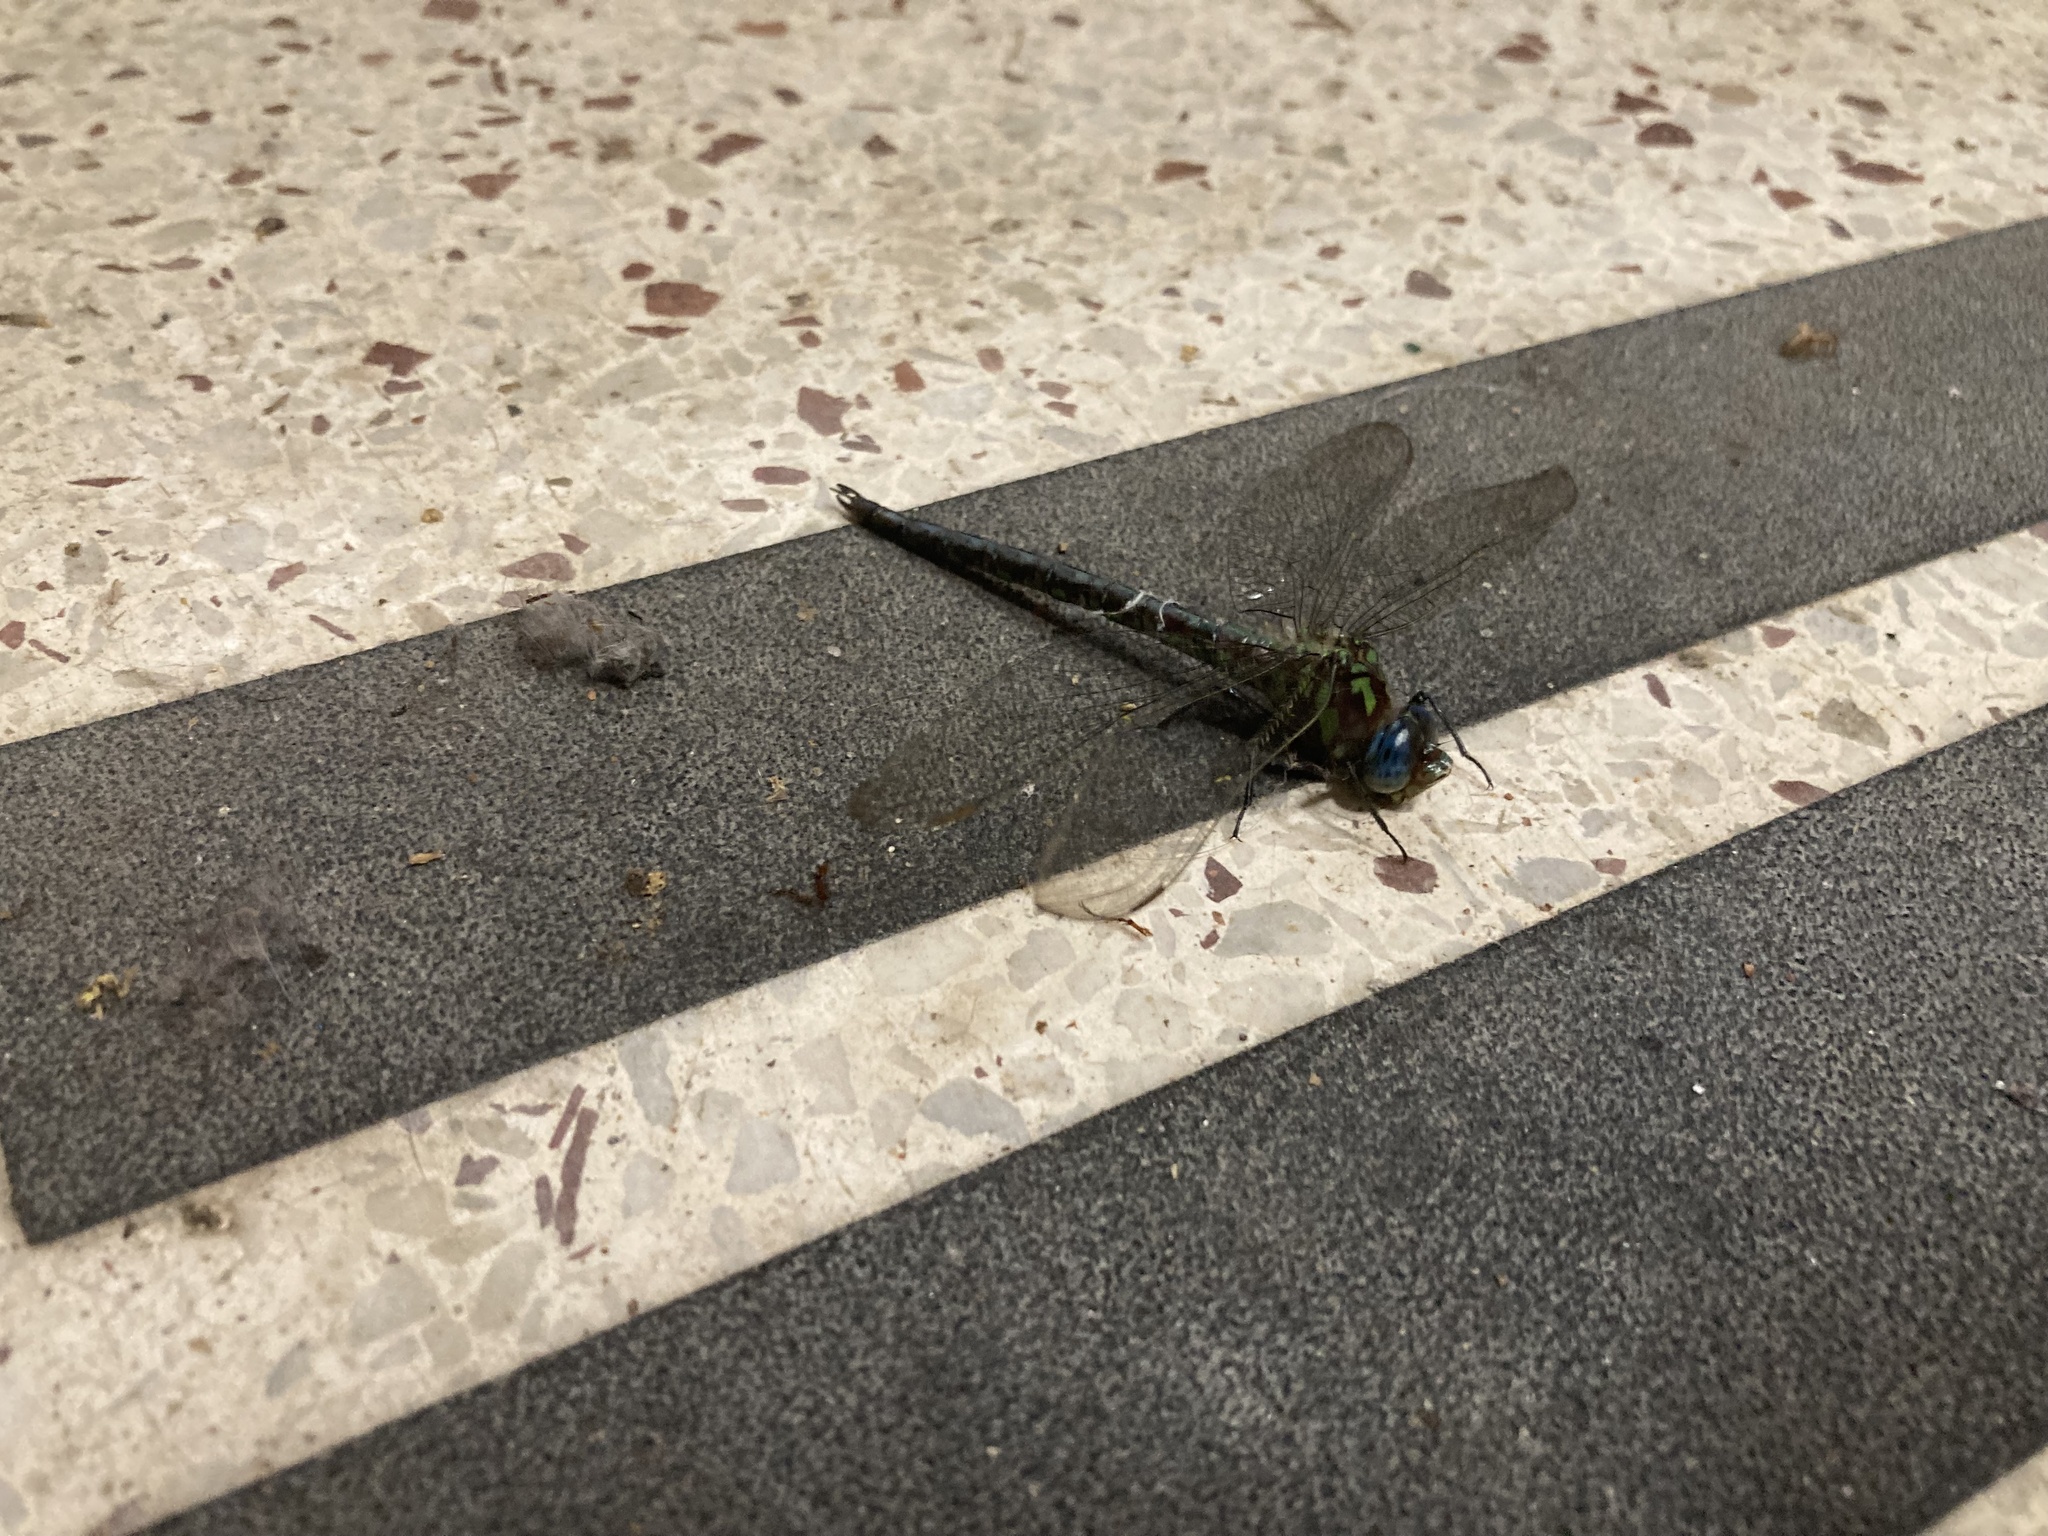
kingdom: Animalia
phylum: Arthropoda
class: Insecta
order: Odonata
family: Aeshnidae
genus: Nasiaeschna
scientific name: Nasiaeschna pentacantha
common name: Cyrano darner
